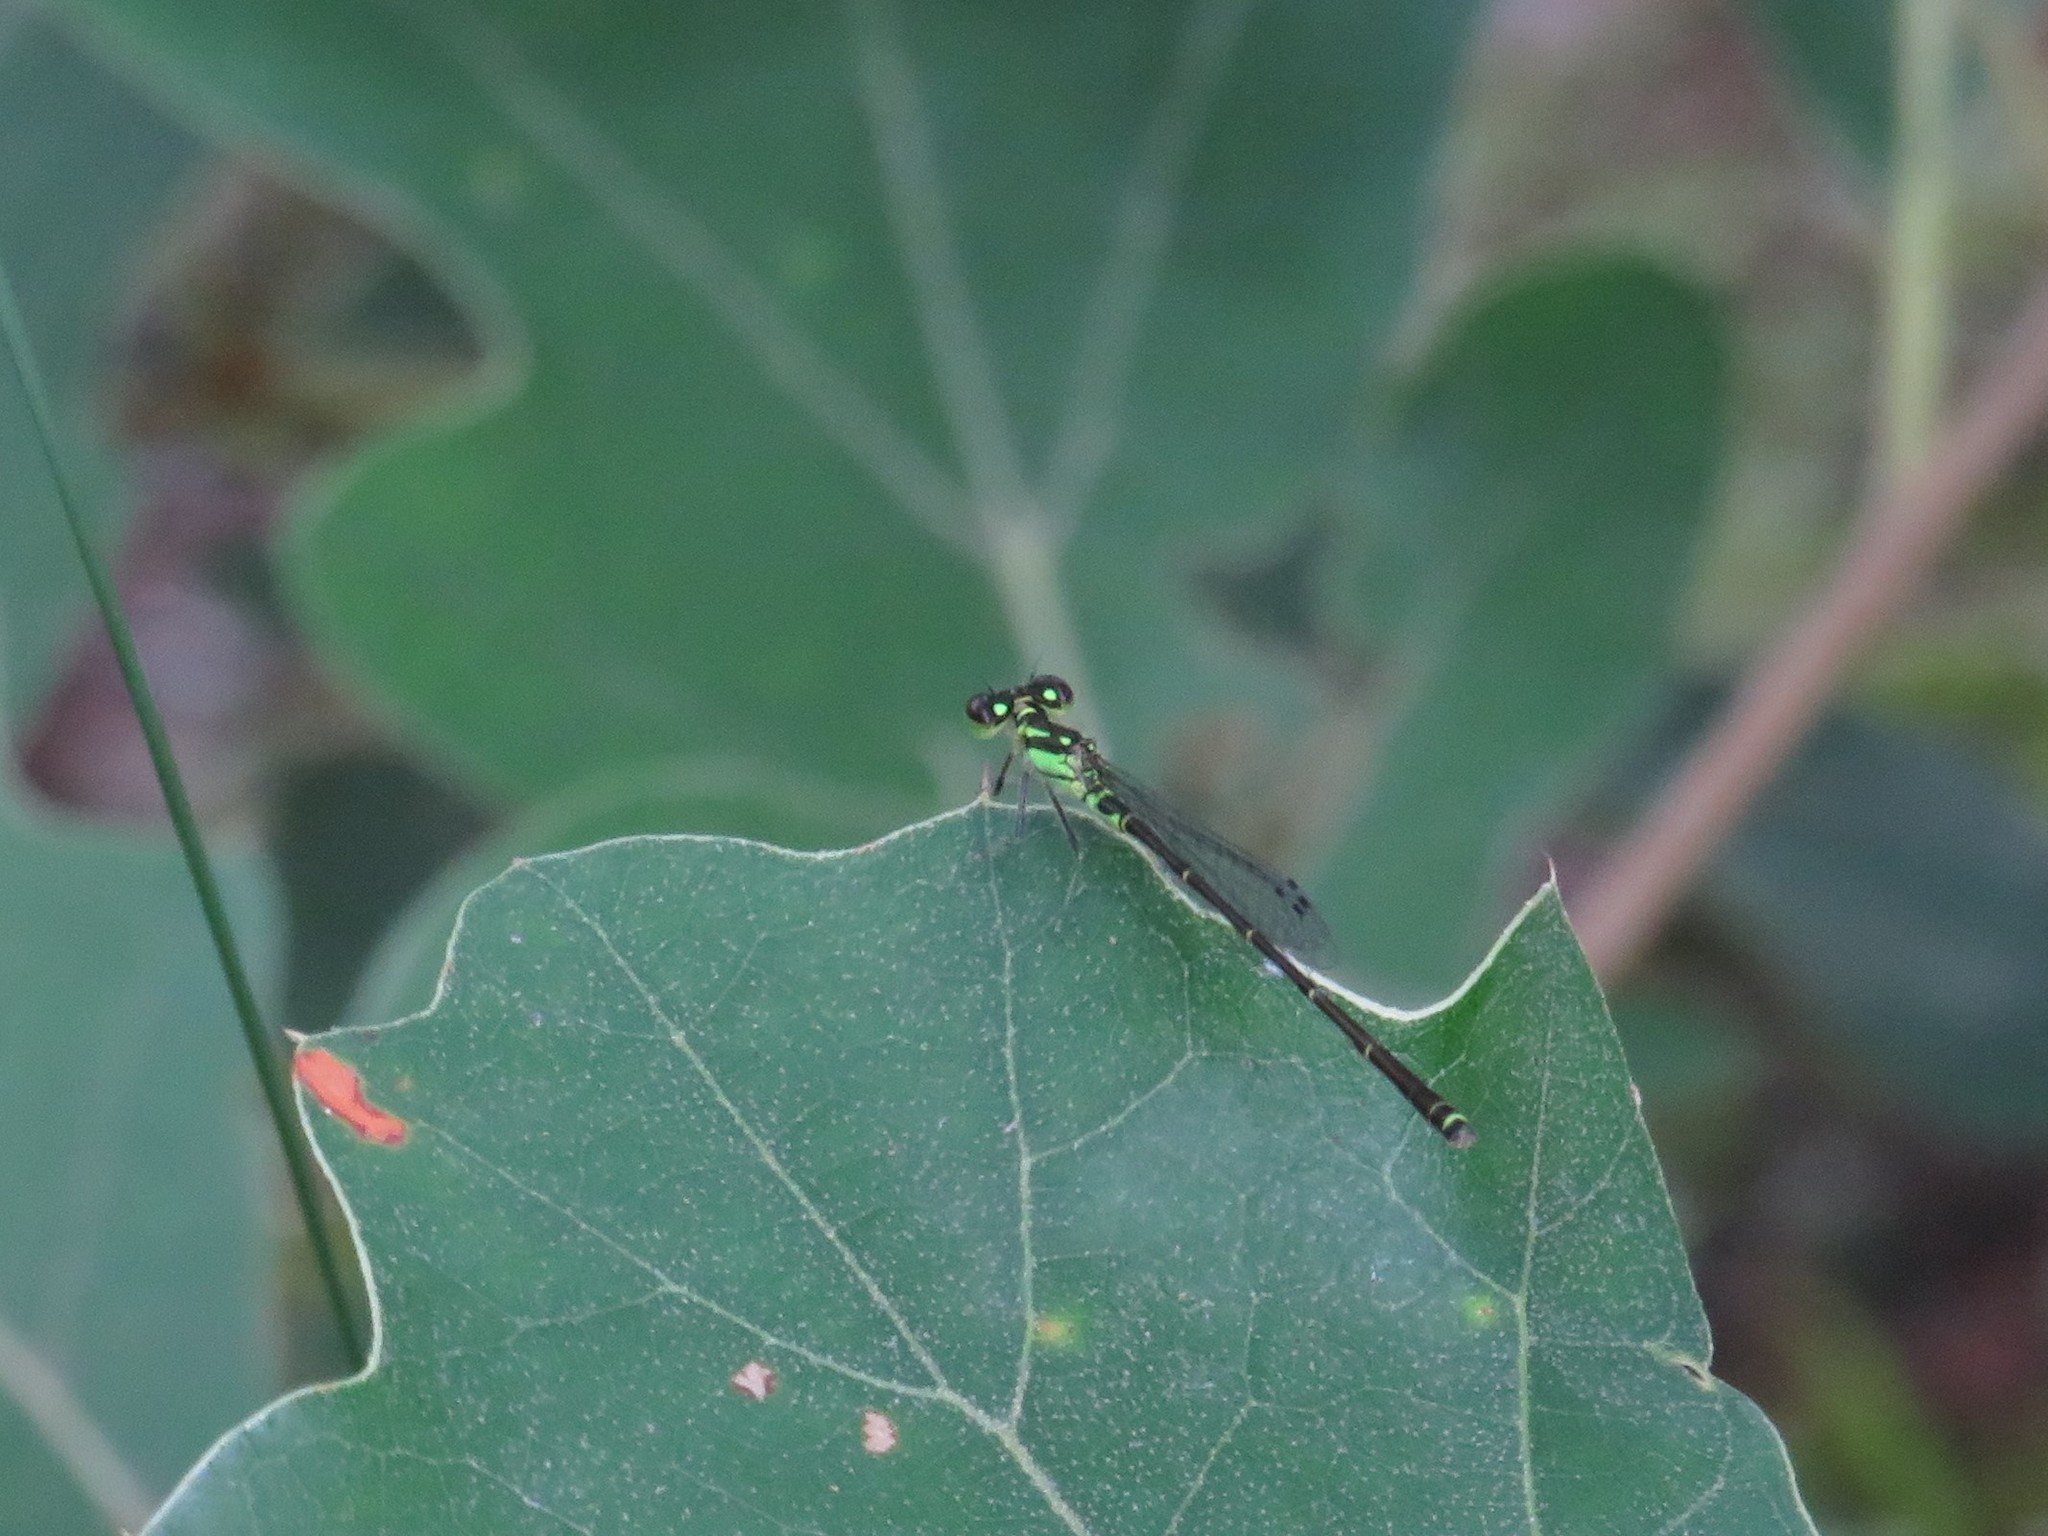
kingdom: Animalia
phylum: Arthropoda
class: Insecta
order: Odonata
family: Coenagrionidae
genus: Ischnura
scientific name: Ischnura posita
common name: Fragile forktail
